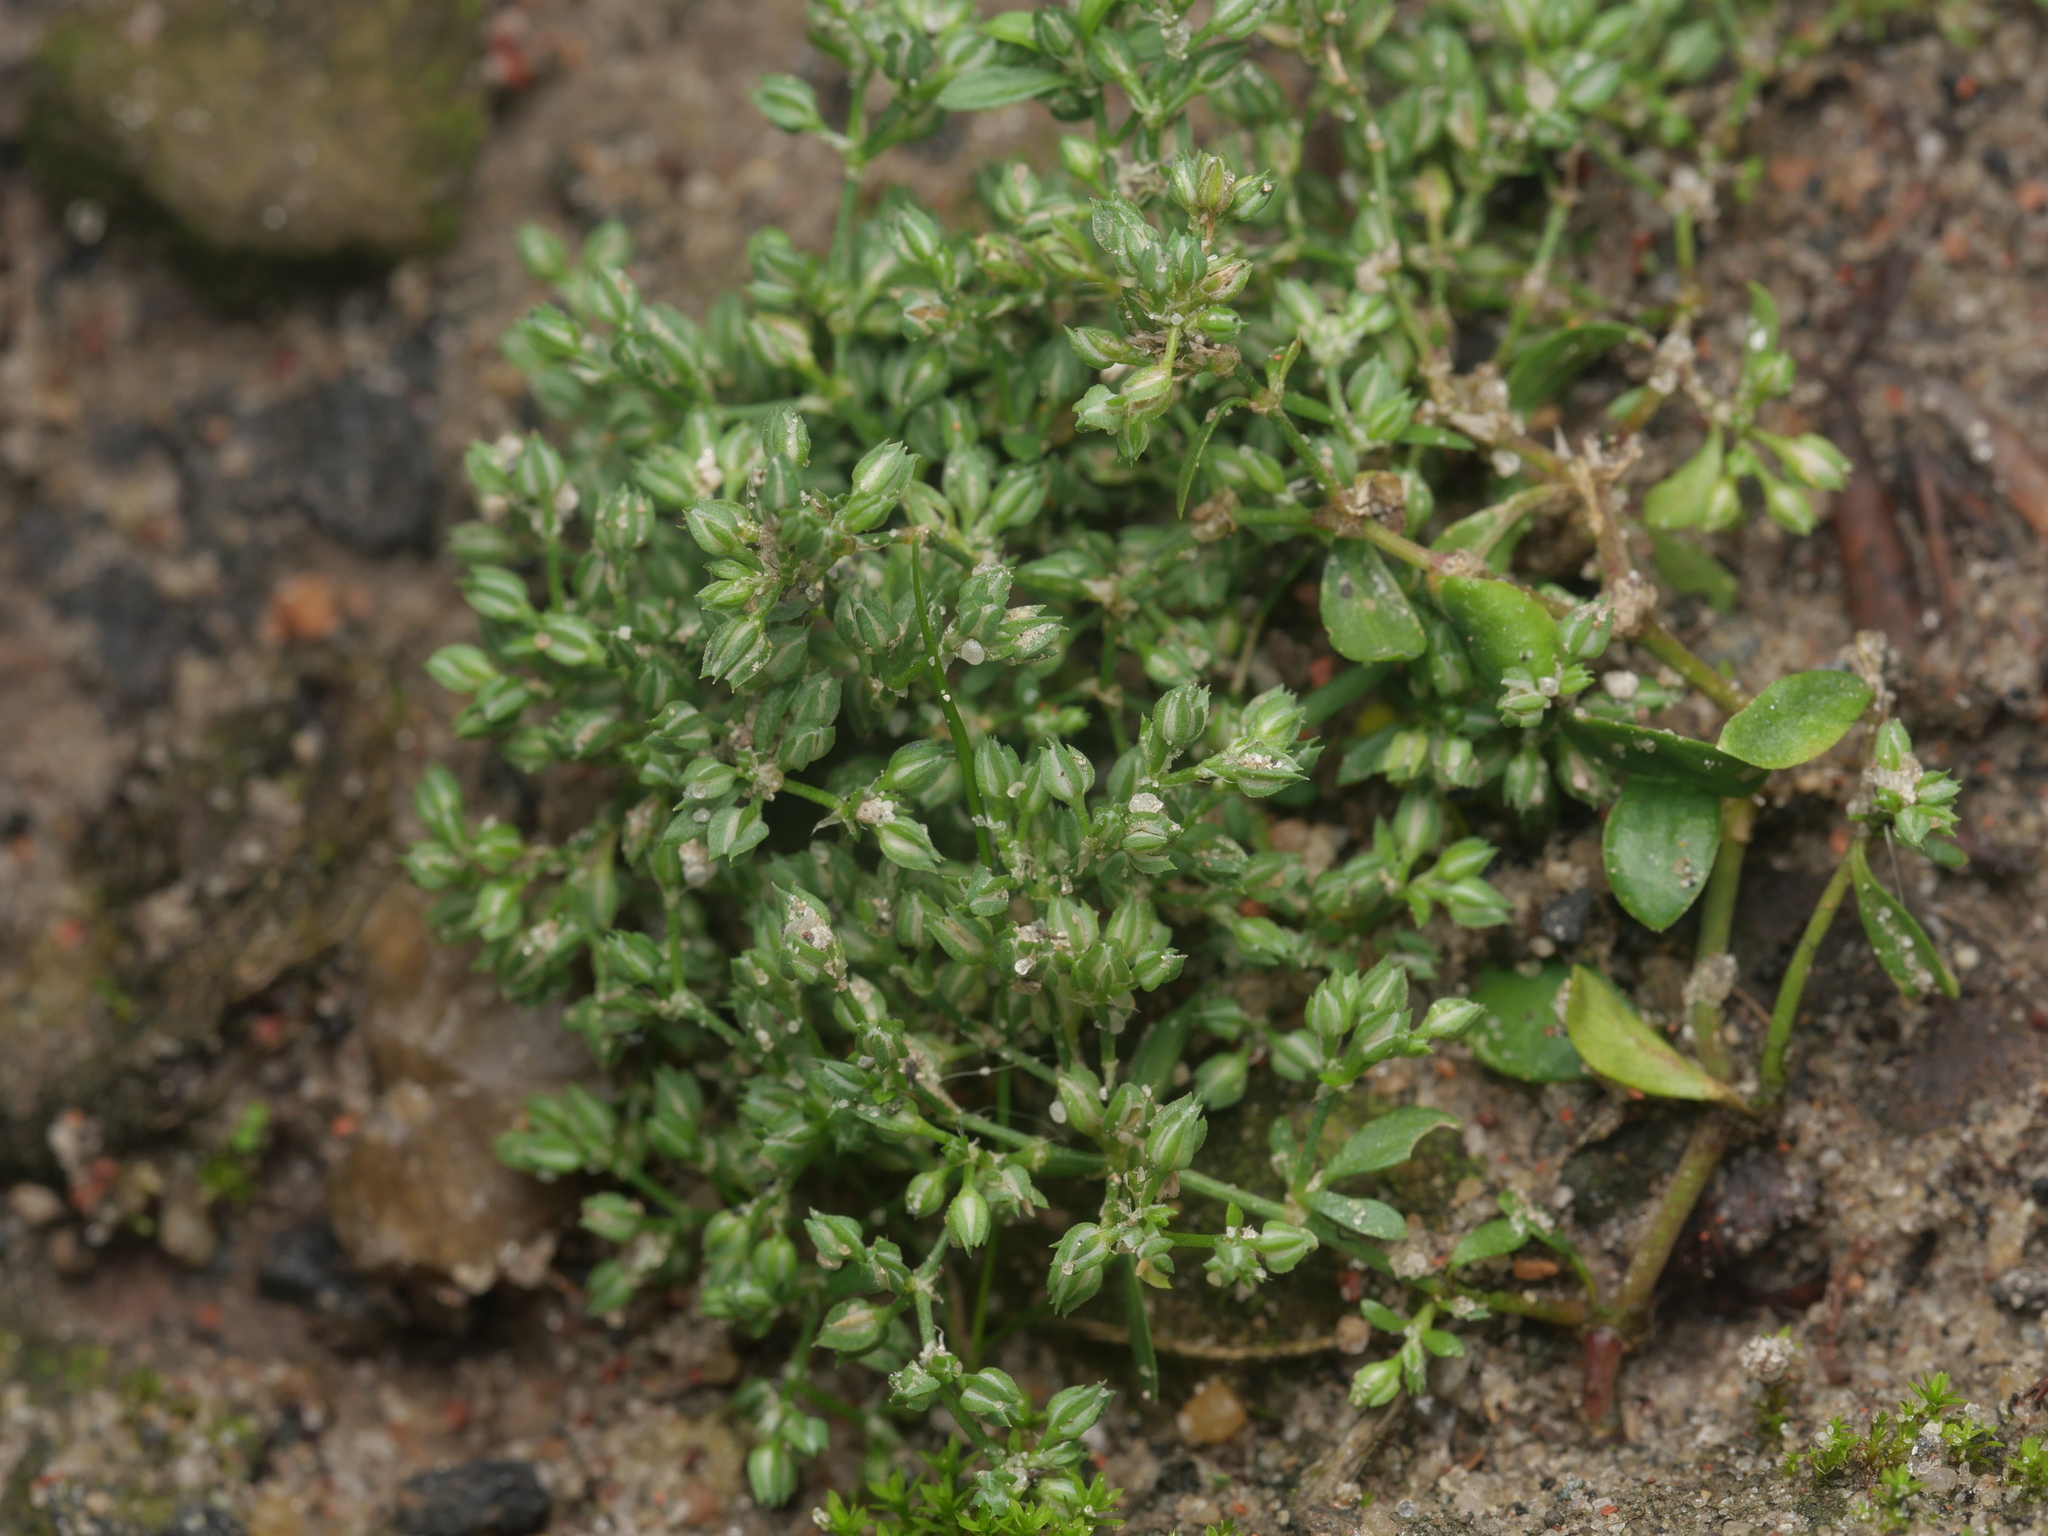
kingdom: Plantae
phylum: Tracheophyta
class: Magnoliopsida
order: Caryophyllales
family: Caryophyllaceae
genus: Polycarpon
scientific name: Polycarpon tetraphyllum
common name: Four-leaved all-seed
